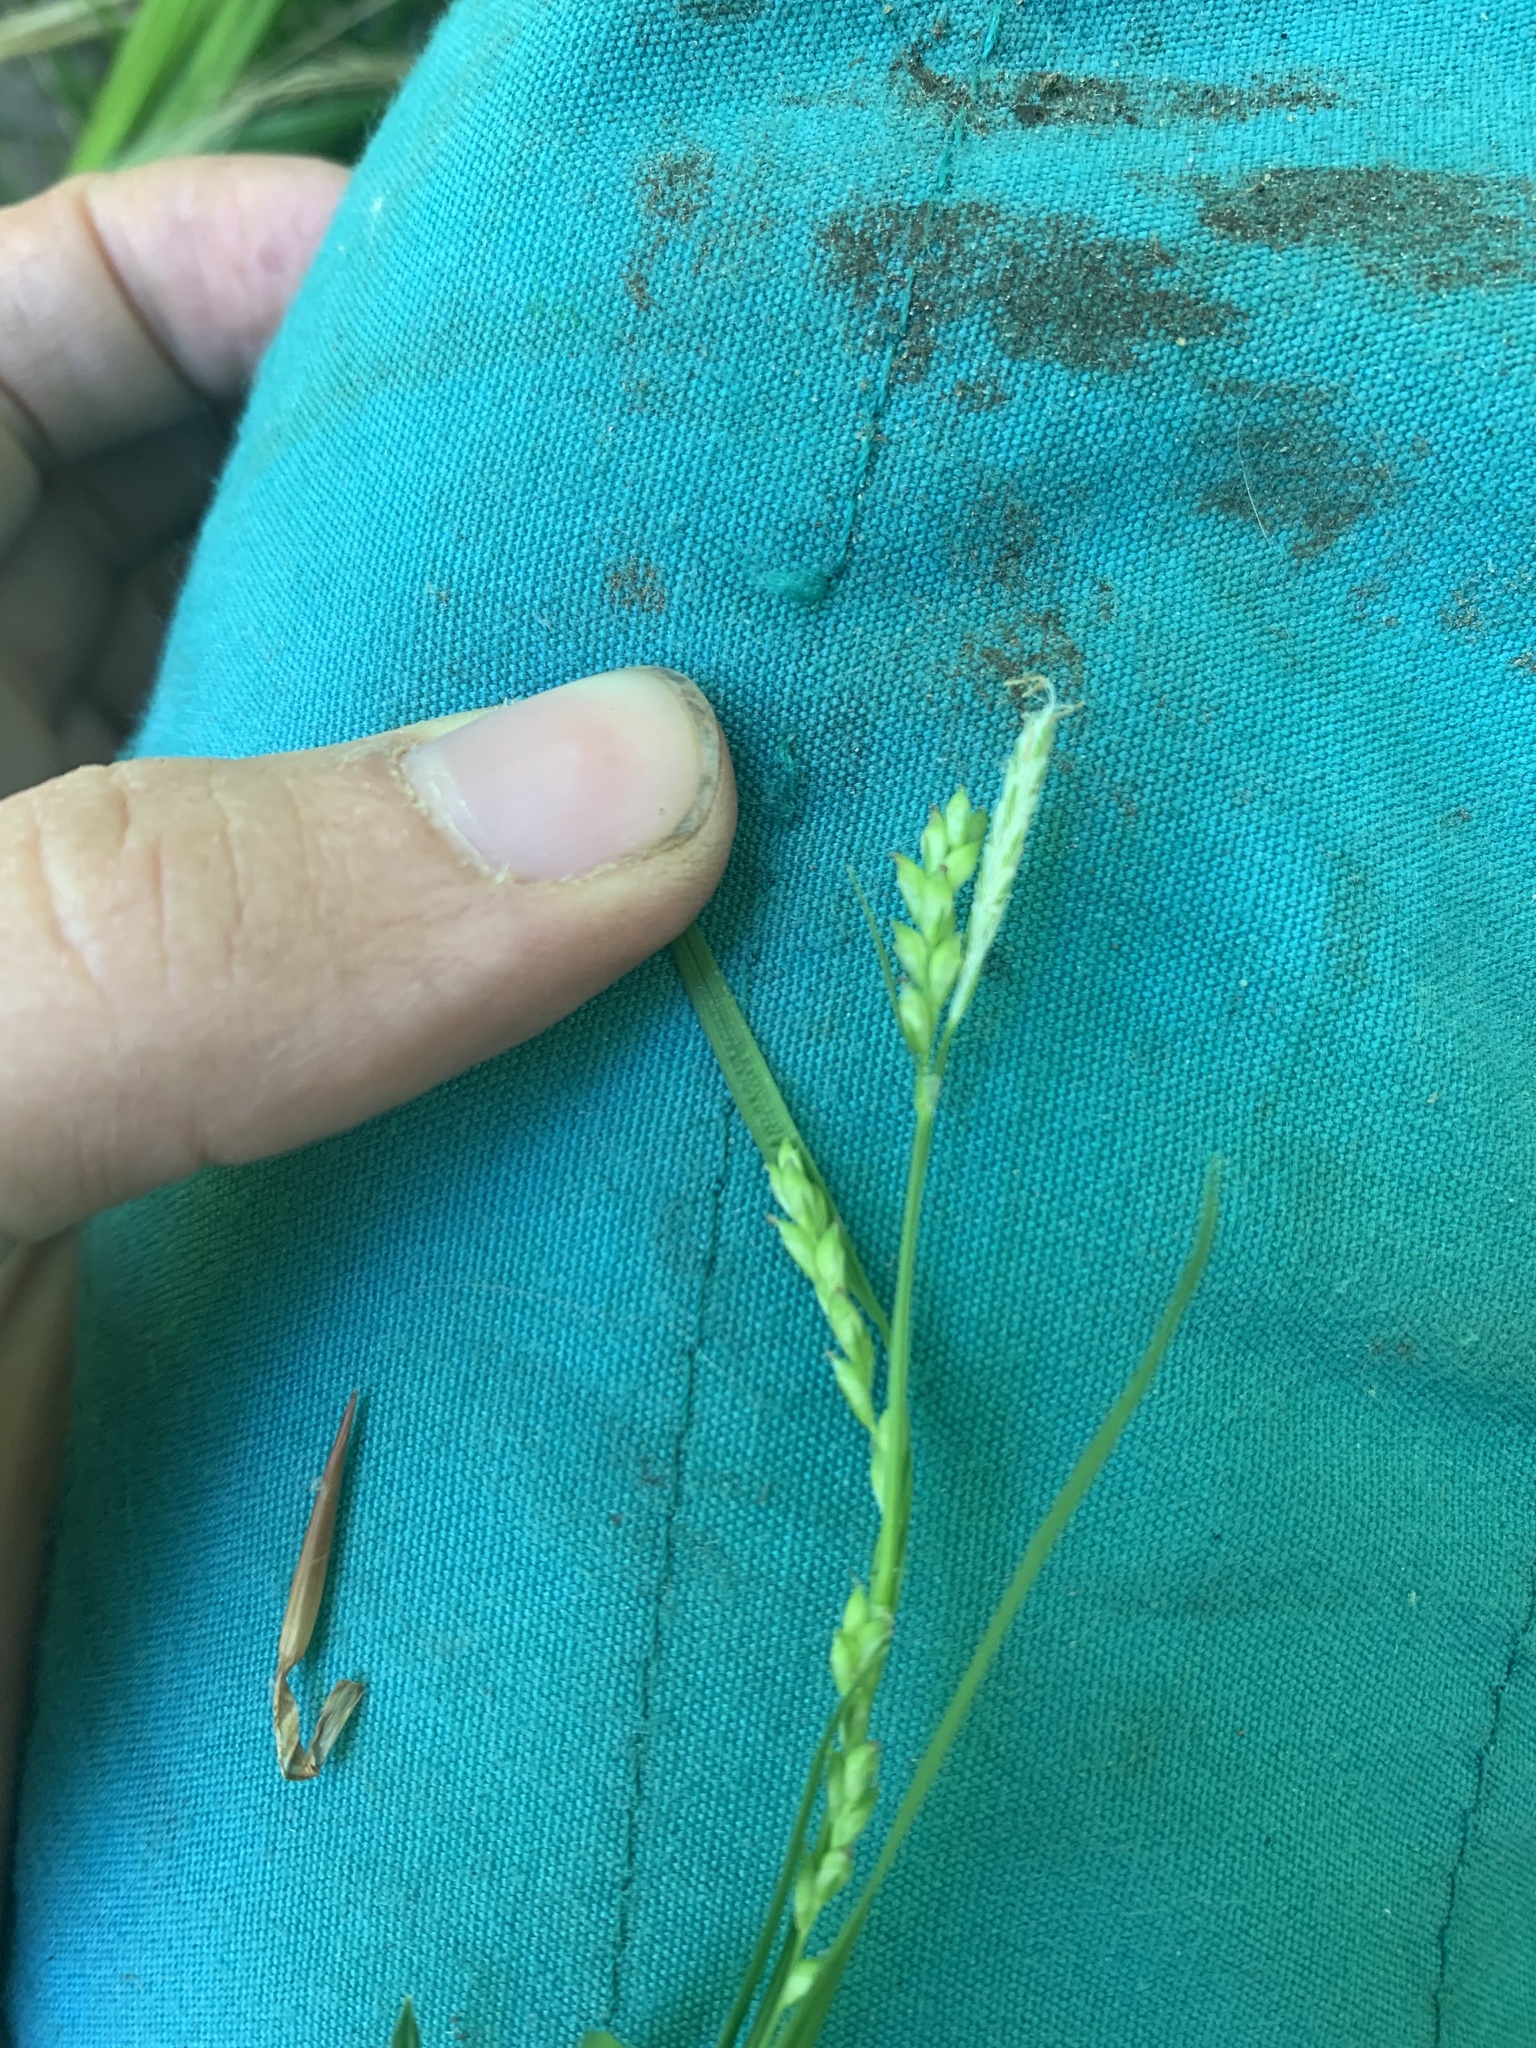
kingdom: Plantae
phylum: Tracheophyta
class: Liliopsida
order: Poales
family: Cyperaceae
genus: Carex
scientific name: Carex leptonervia
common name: Few-nerved wood sedge
